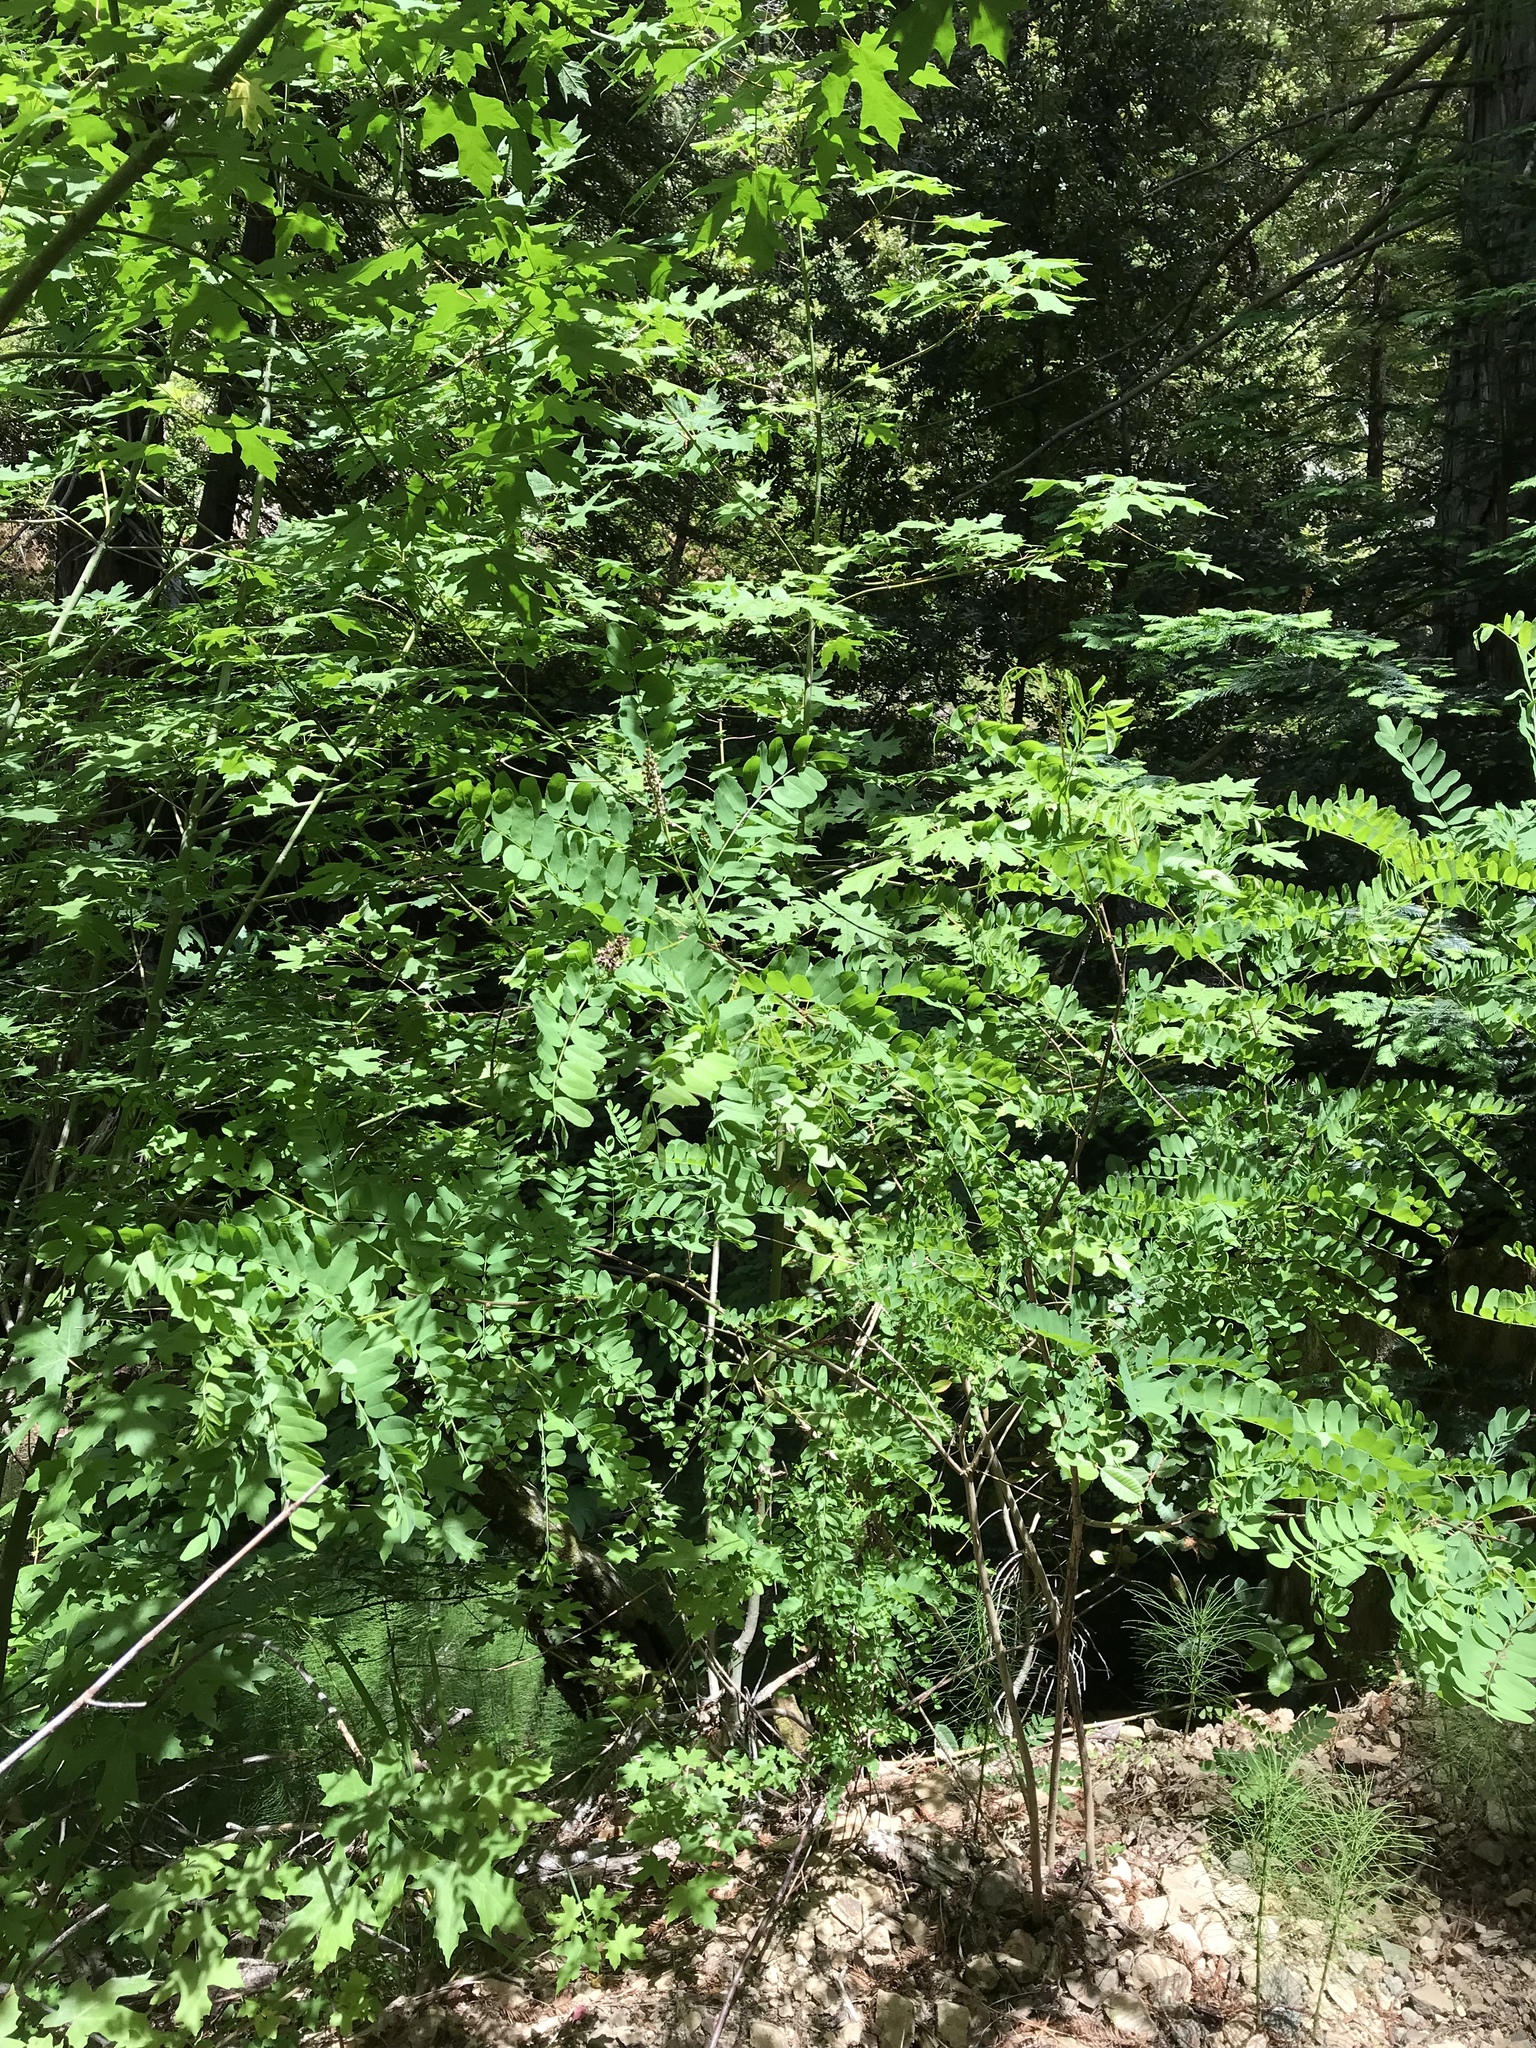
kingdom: Plantae
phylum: Tracheophyta
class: Magnoliopsida
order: Fabales
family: Fabaceae
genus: Amorpha
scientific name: Amorpha californica
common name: California indigobush
